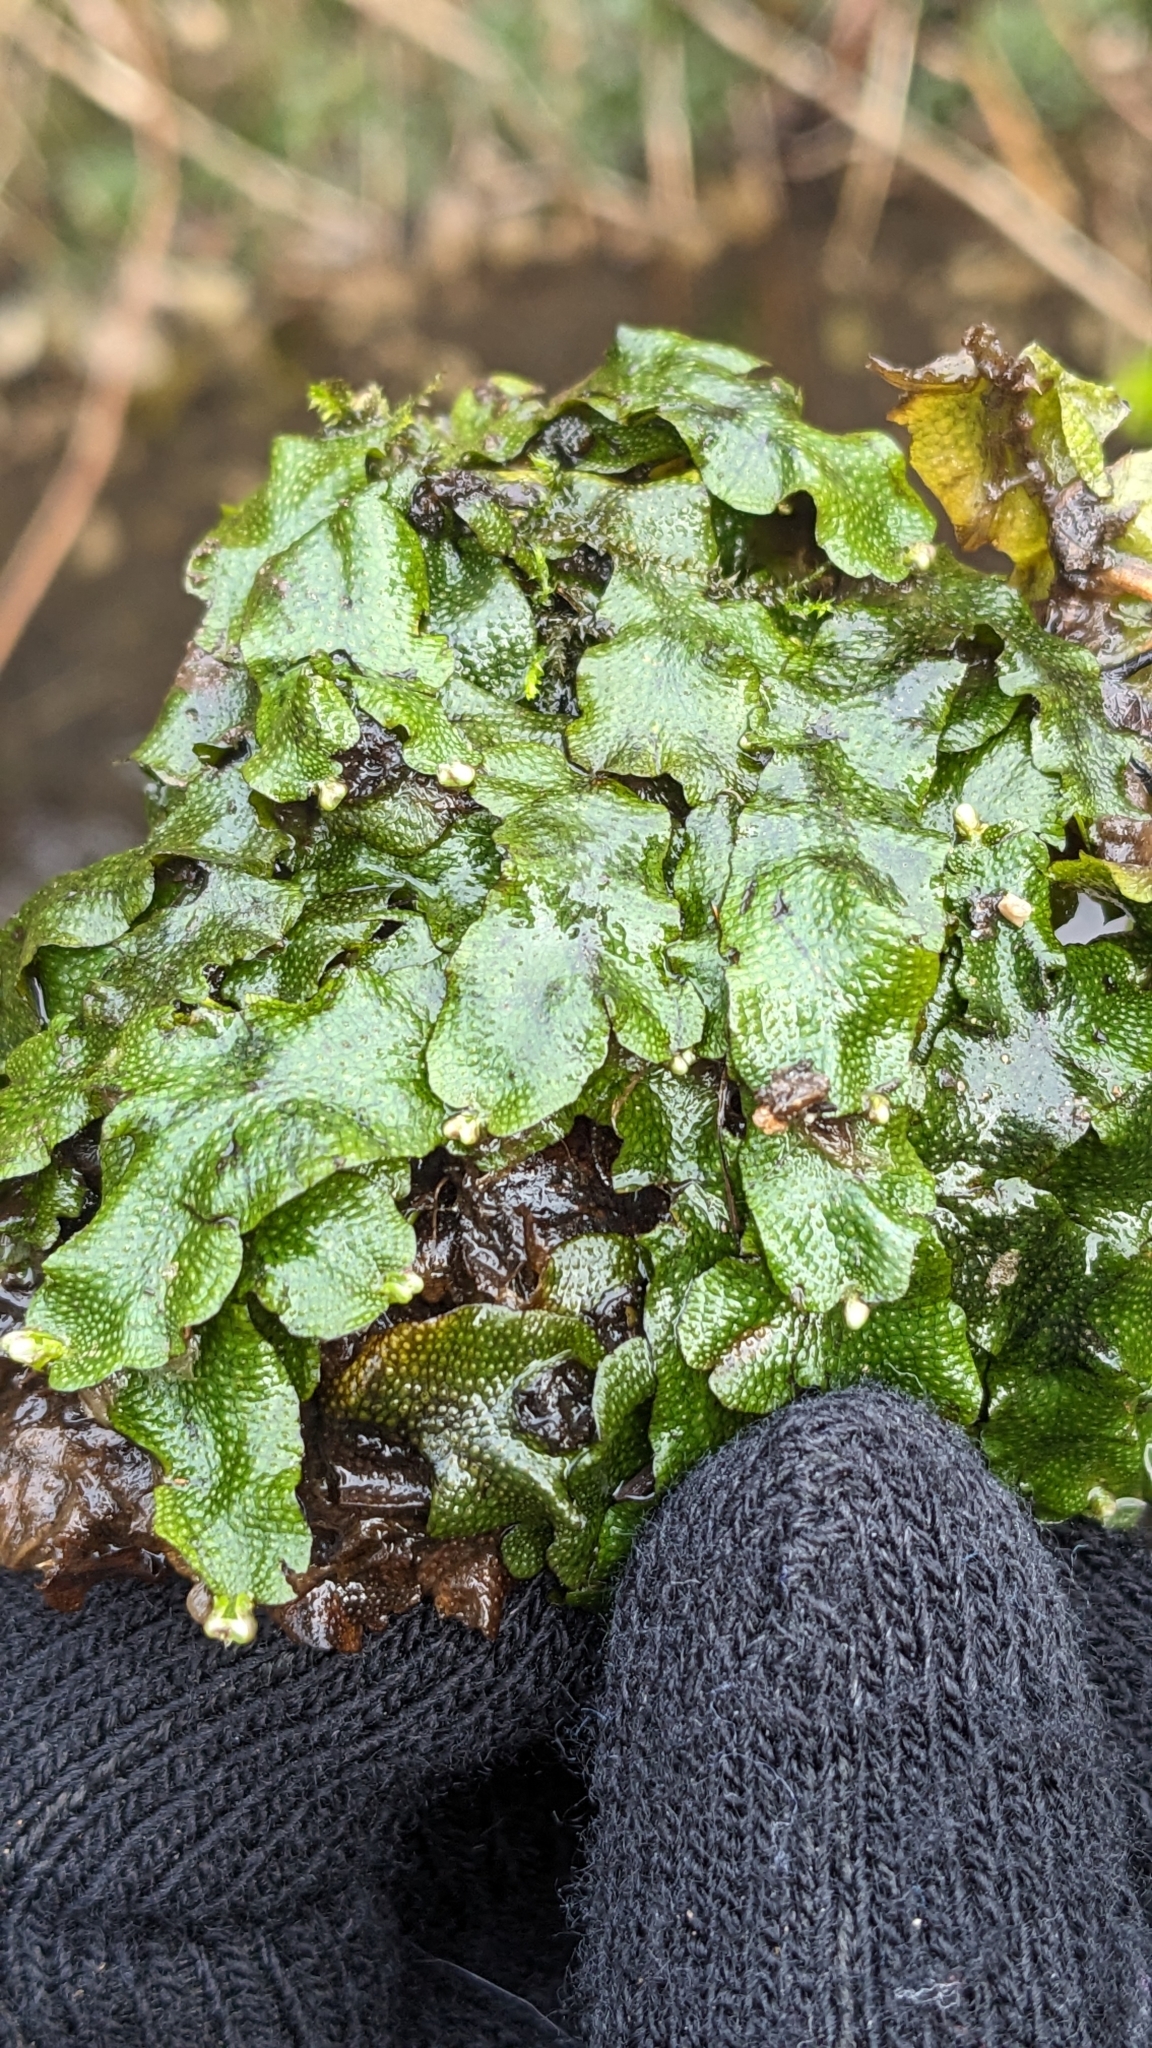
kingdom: Plantae
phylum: Marchantiophyta
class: Marchantiopsida
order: Marchantiales
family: Conocephalaceae
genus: Conocephalum
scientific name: Conocephalum conicum
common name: Great scented liverwort
